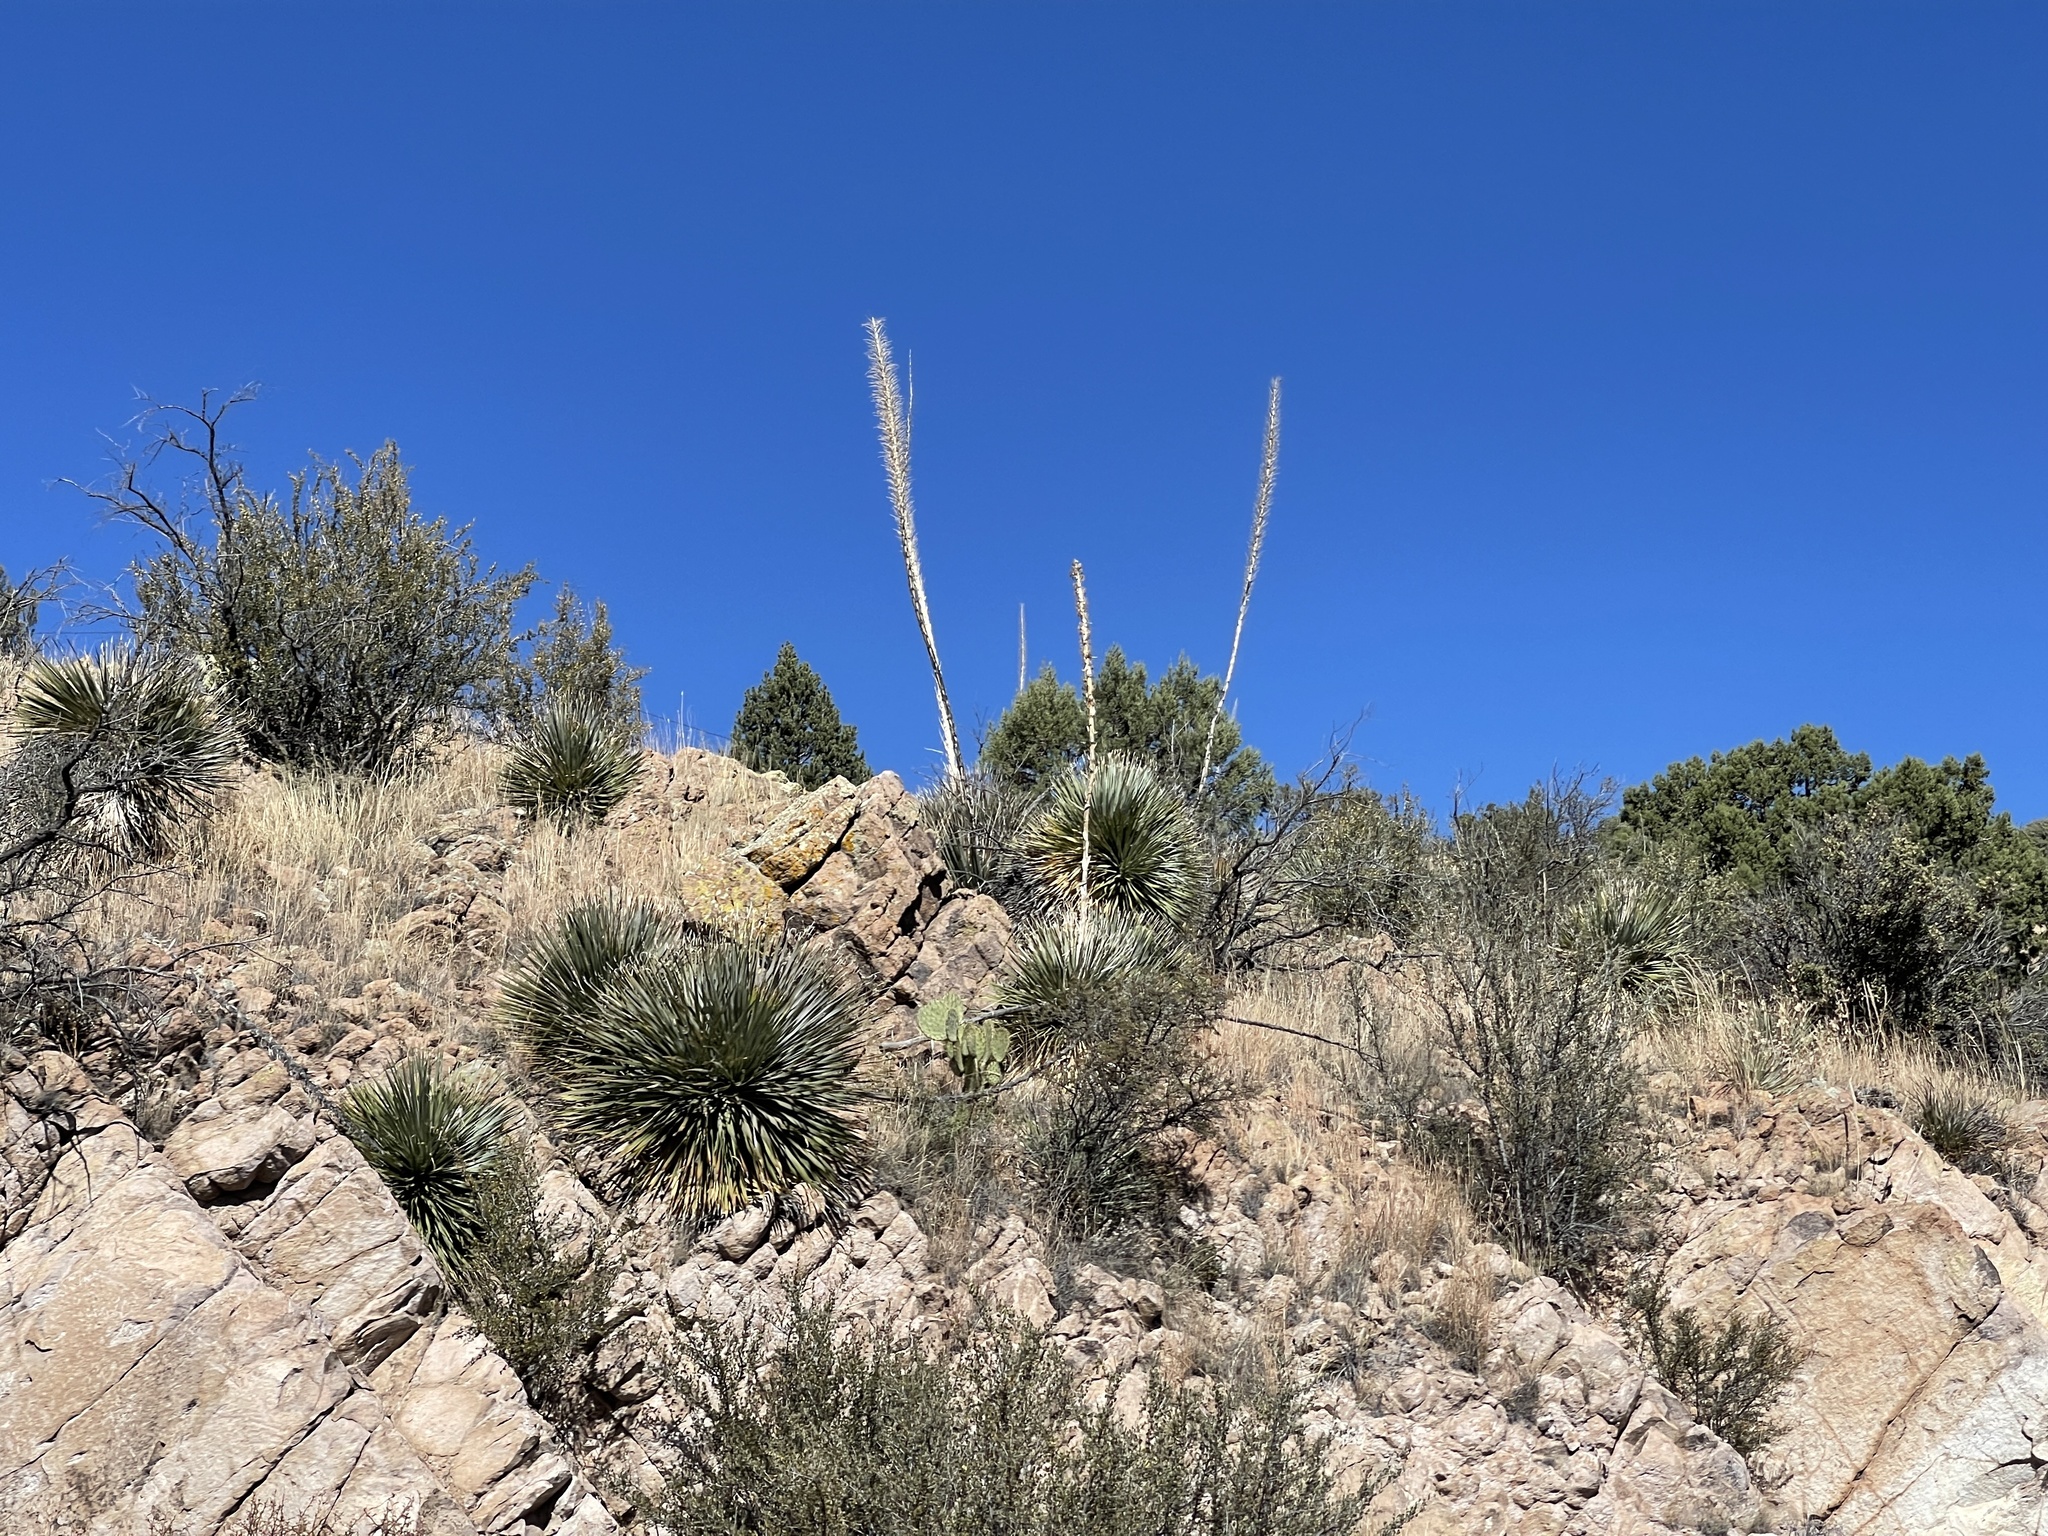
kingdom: Plantae
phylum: Tracheophyta
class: Liliopsida
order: Asparagales
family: Asparagaceae
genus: Dasylirion
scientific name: Dasylirion wheeleri
